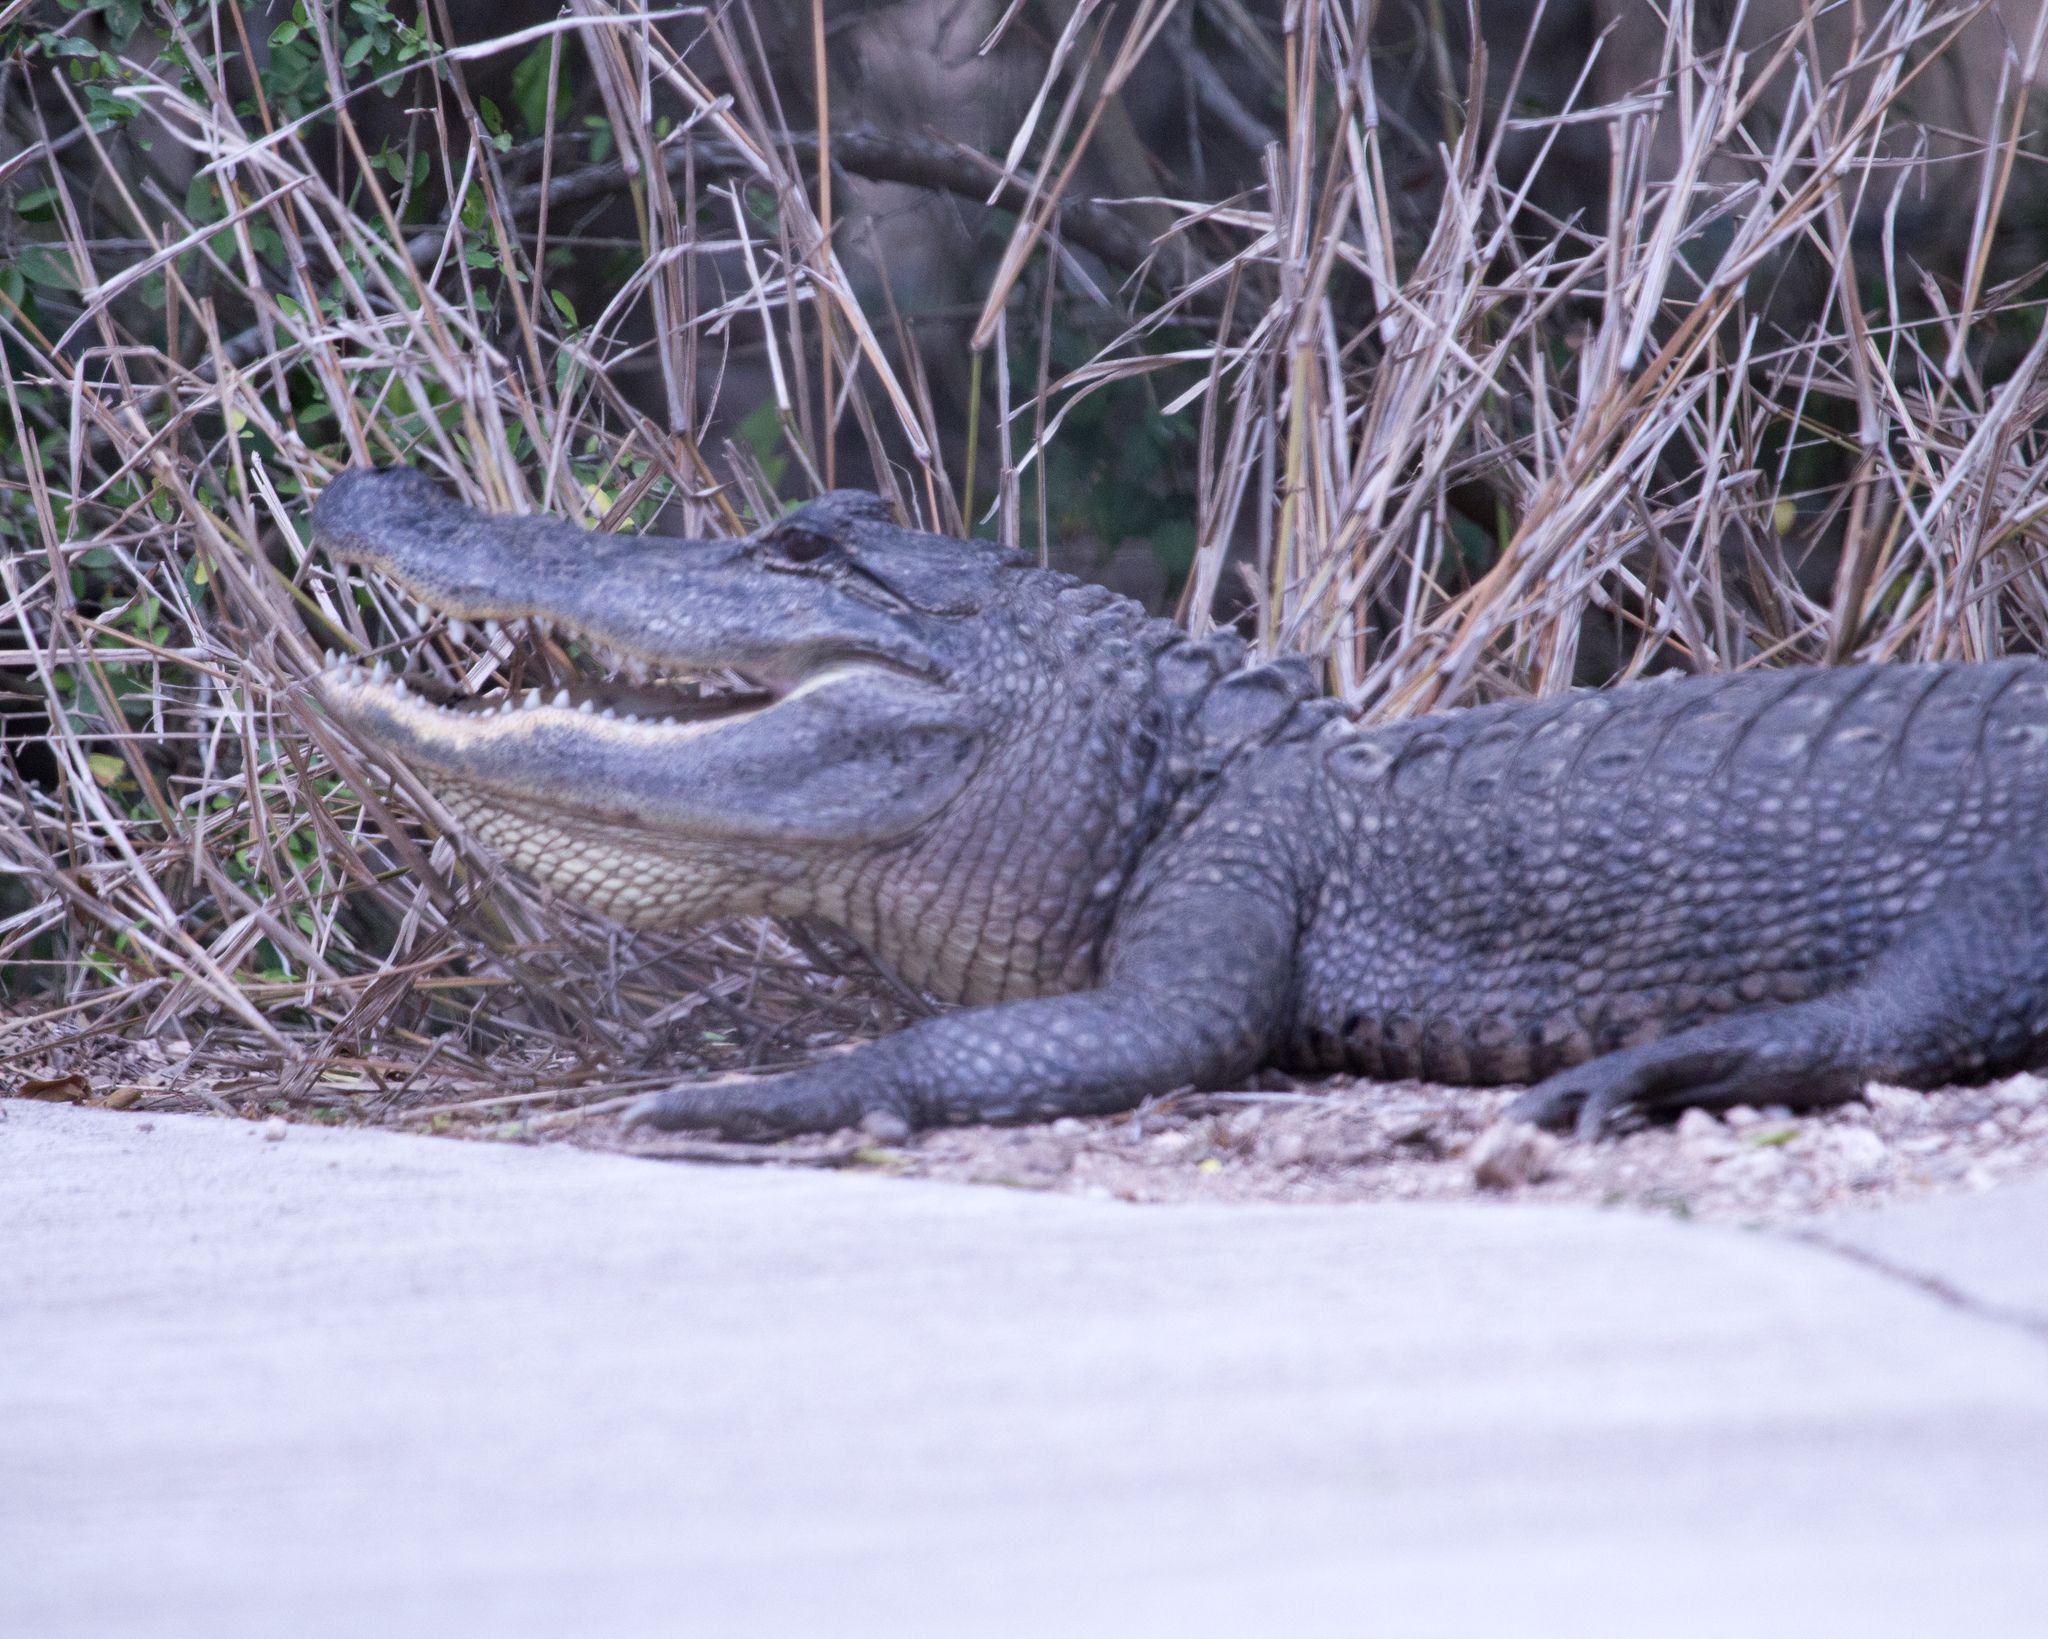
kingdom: Animalia
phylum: Chordata
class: Crocodylia
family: Alligatoridae
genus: Alligator
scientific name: Alligator mississippiensis
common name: American alligator
